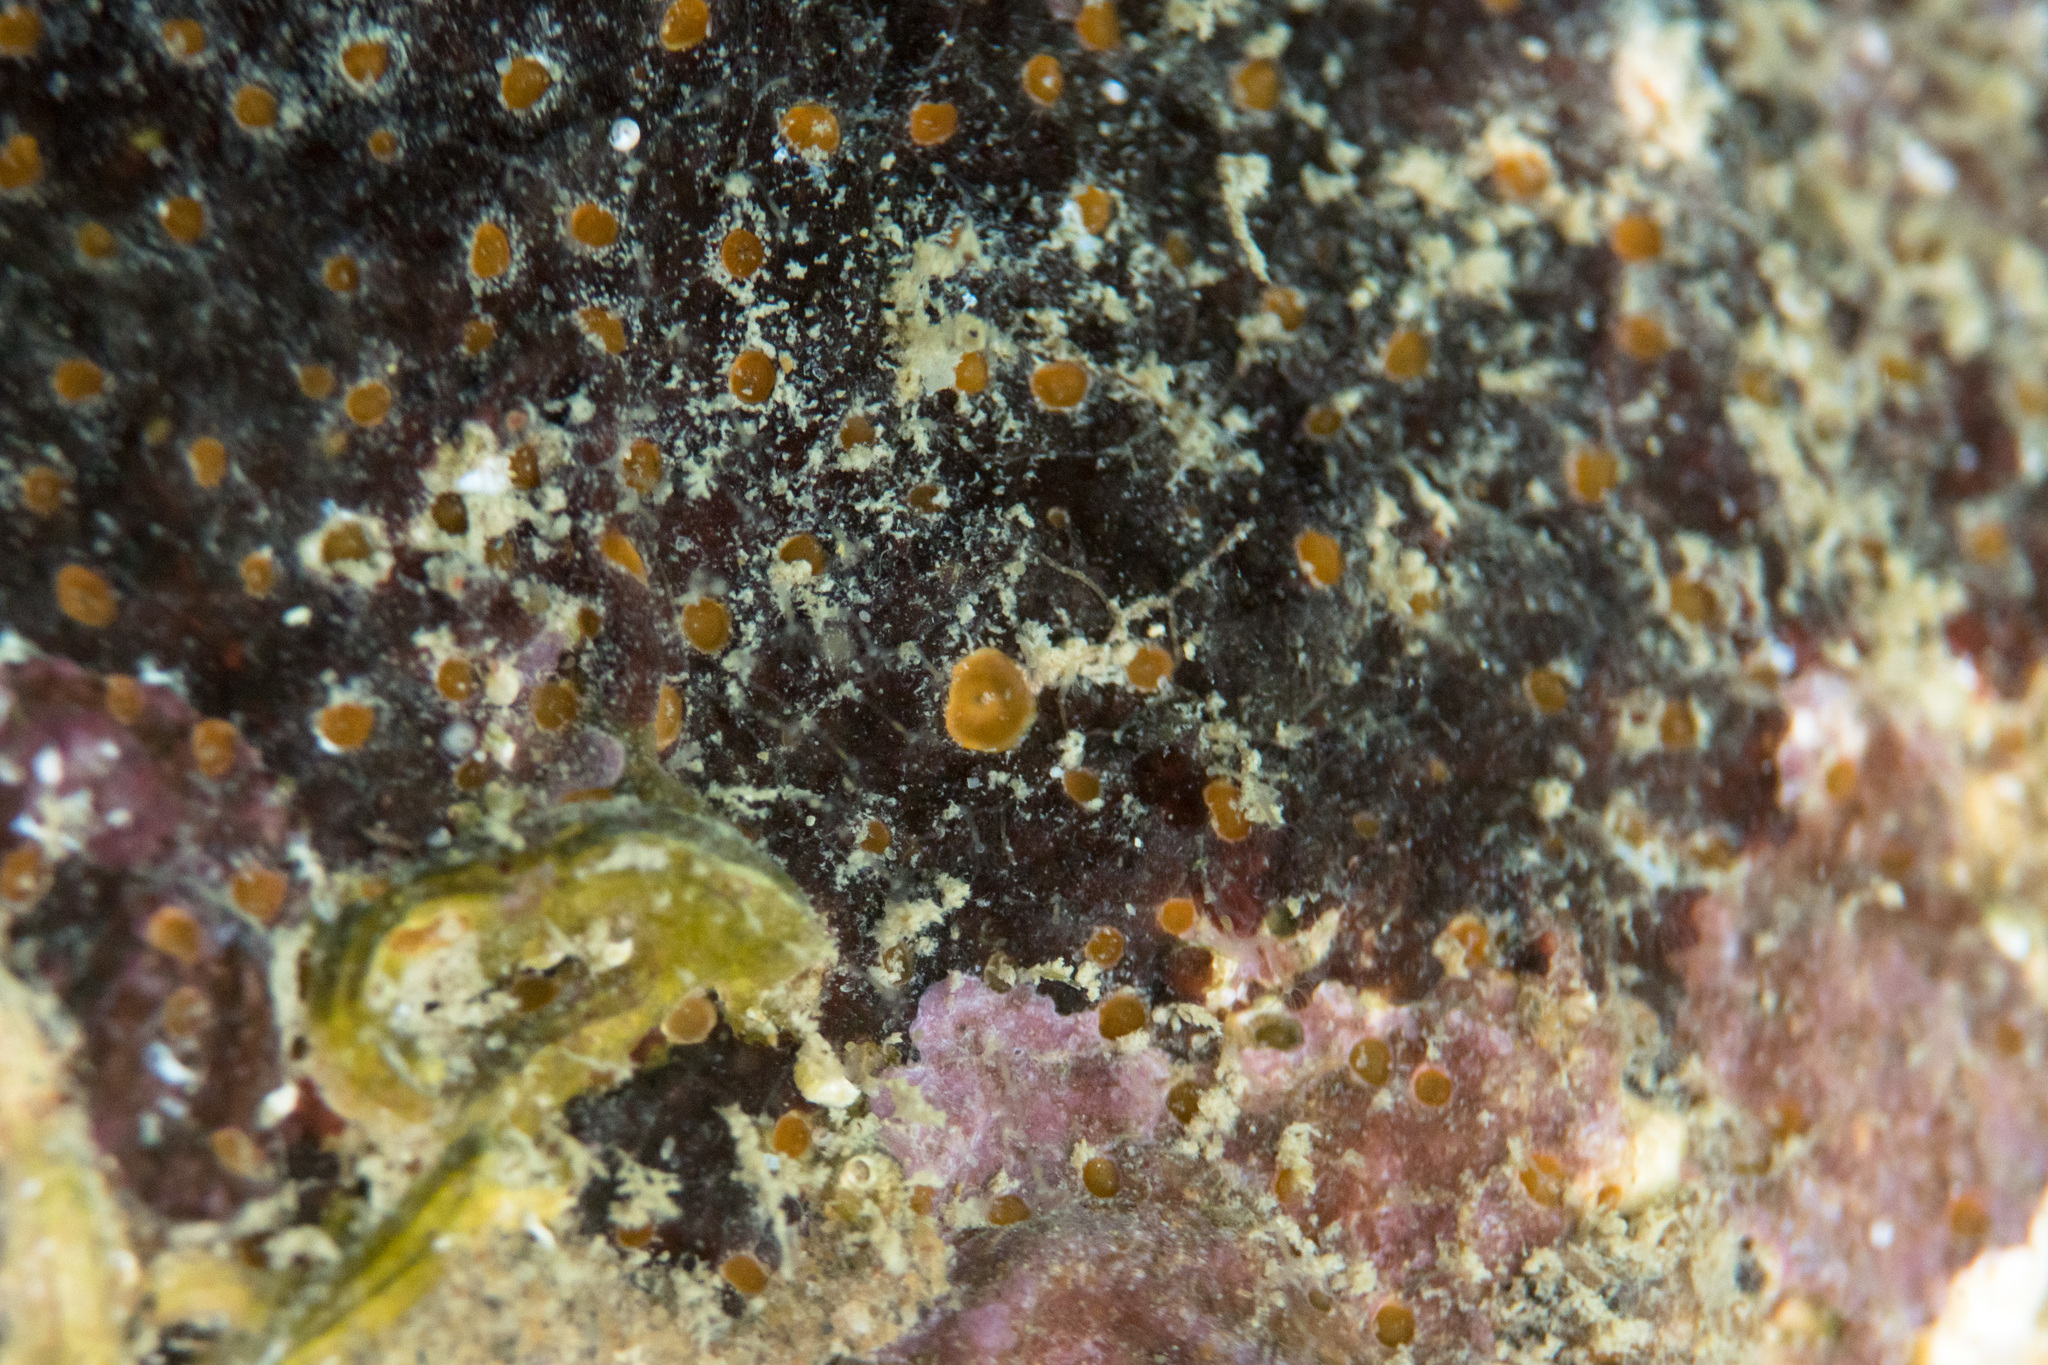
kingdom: Animalia
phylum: Porifera
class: Demospongiae
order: Clionaida
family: Clionaidae
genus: Pione
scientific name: Pione vastifica
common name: Boring sponge
